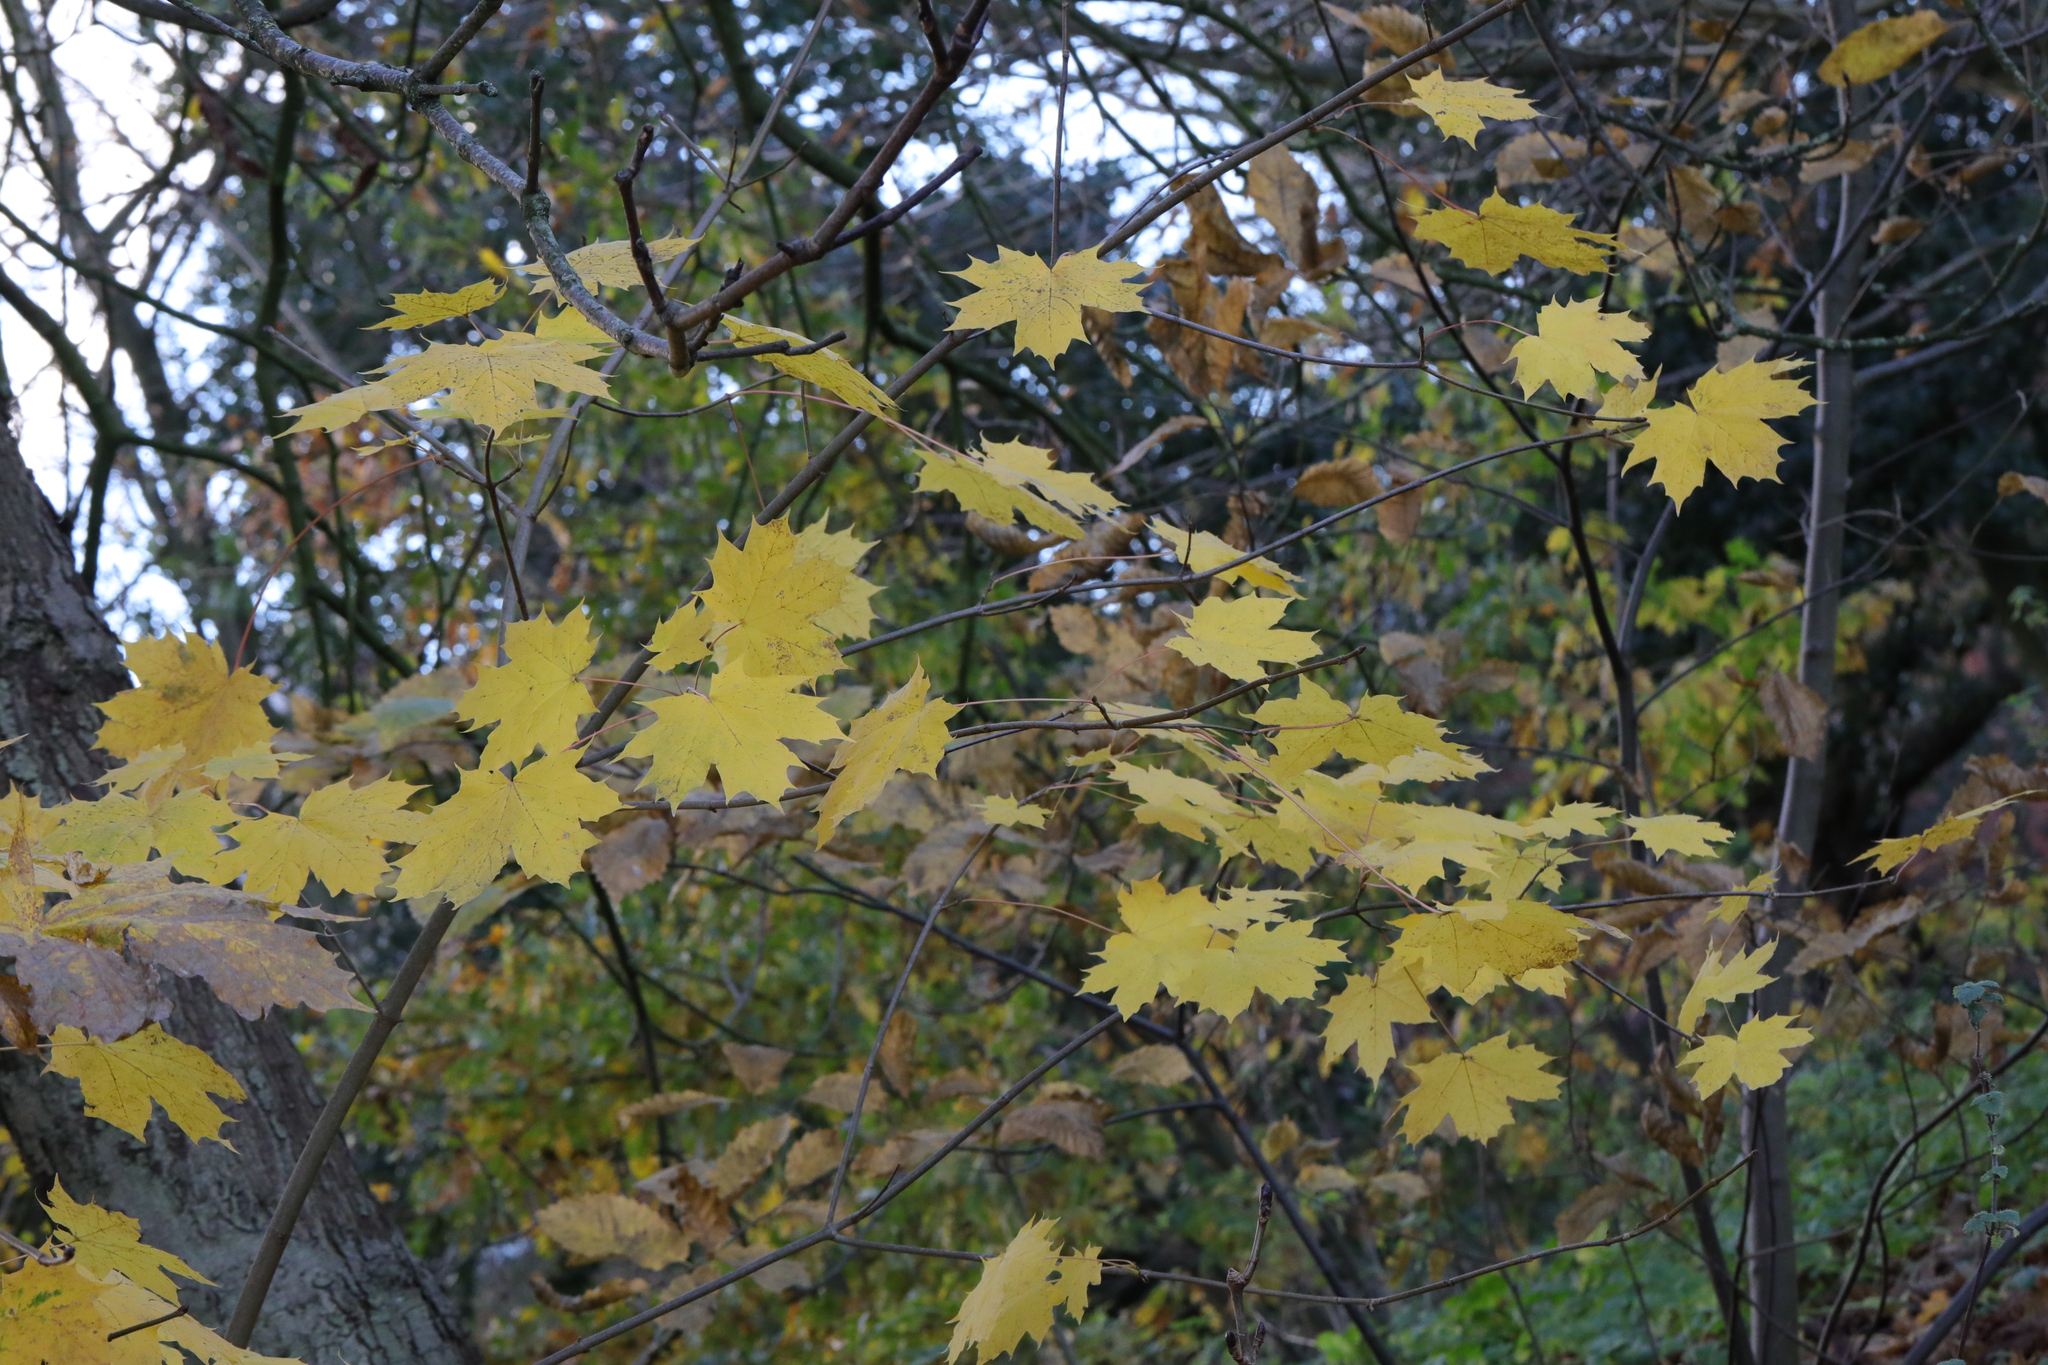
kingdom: Plantae
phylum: Tracheophyta
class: Magnoliopsida
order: Sapindales
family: Sapindaceae
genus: Acer
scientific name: Acer platanoides
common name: Norway maple
